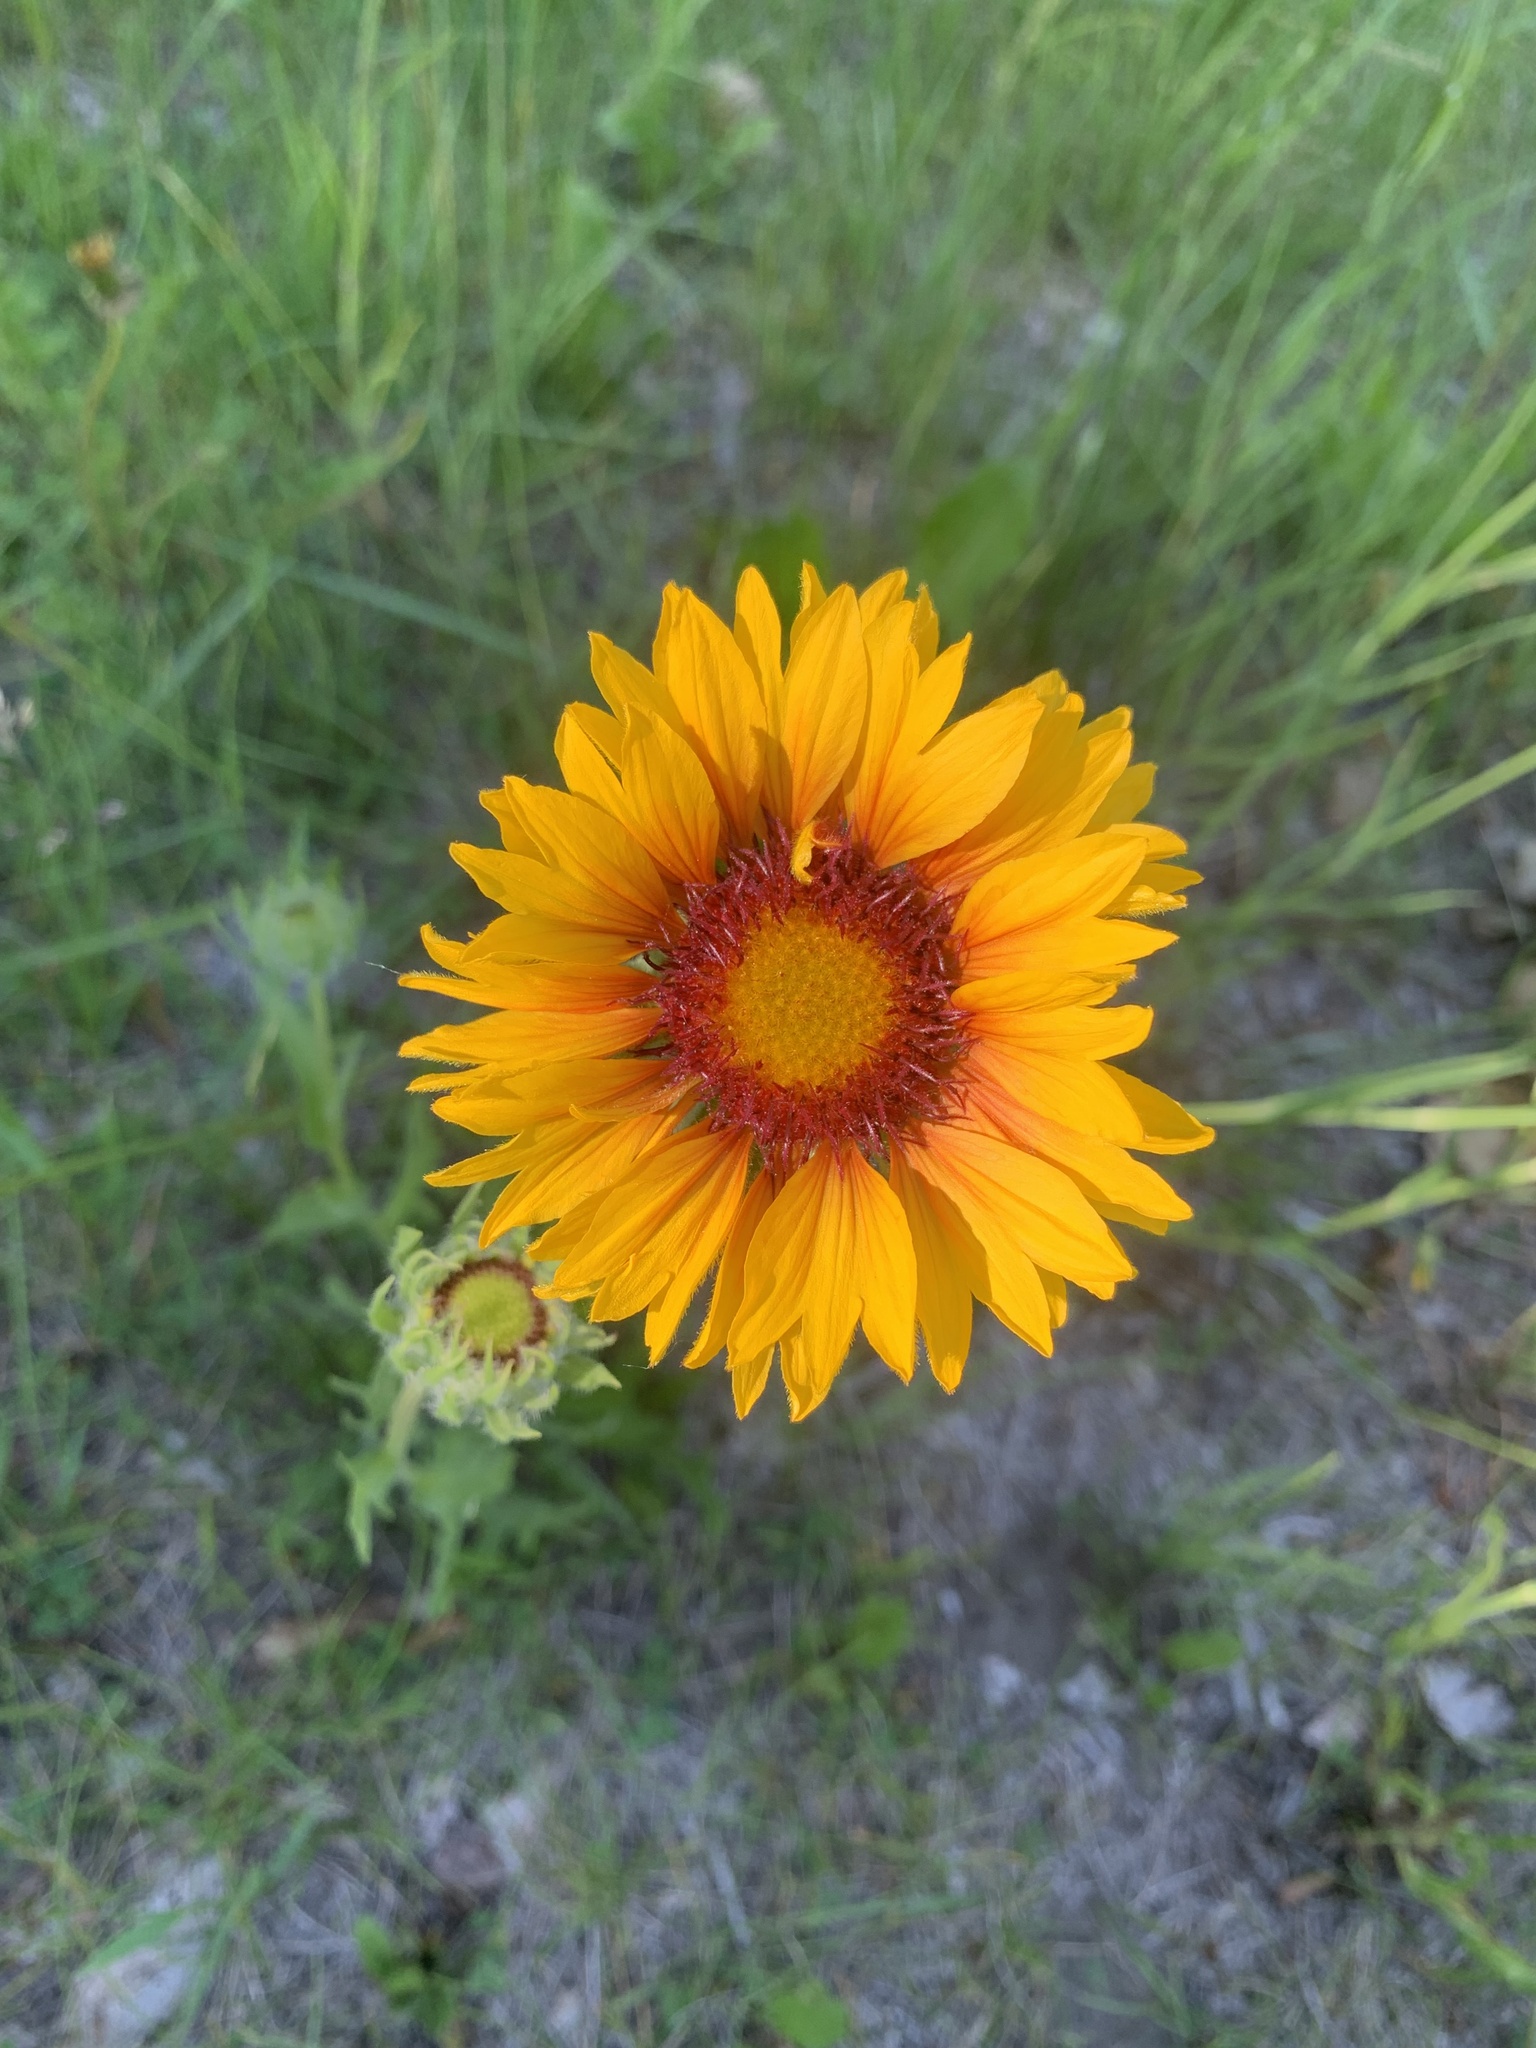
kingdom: Plantae
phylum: Tracheophyta
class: Magnoliopsida
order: Asterales
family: Asteraceae
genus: Gaillardia
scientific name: Gaillardia aristata
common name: Blanket-flower
